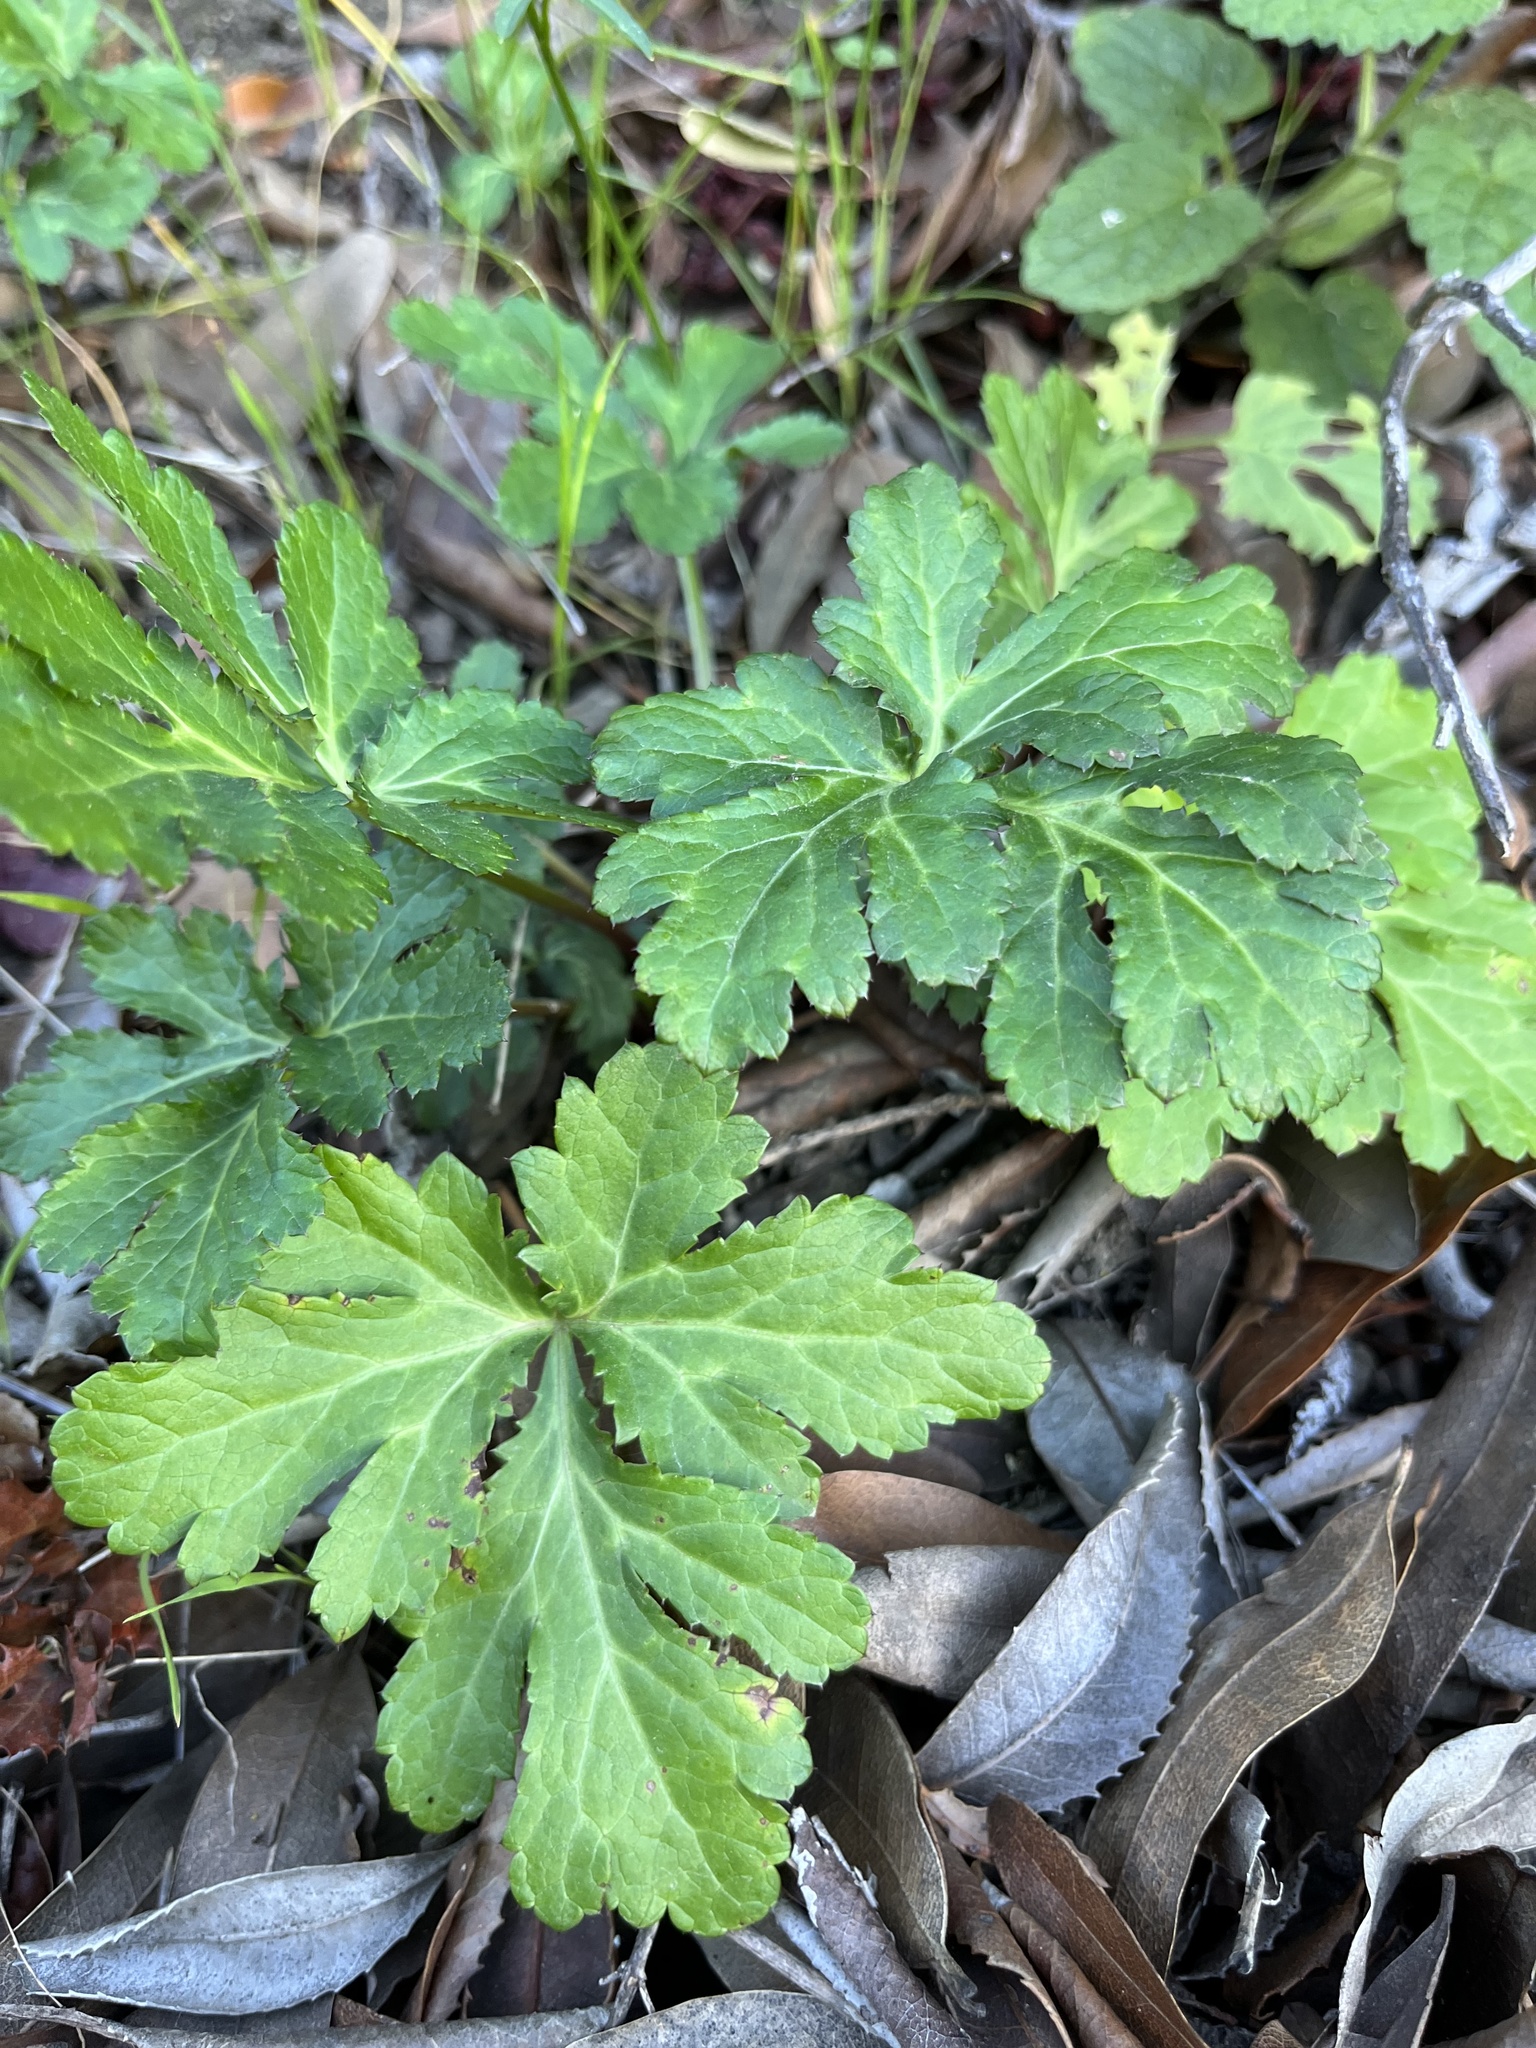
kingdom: Plantae
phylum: Tracheophyta
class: Magnoliopsida
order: Apiales
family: Apiaceae
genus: Sanicula
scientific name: Sanicula hoffmannii
